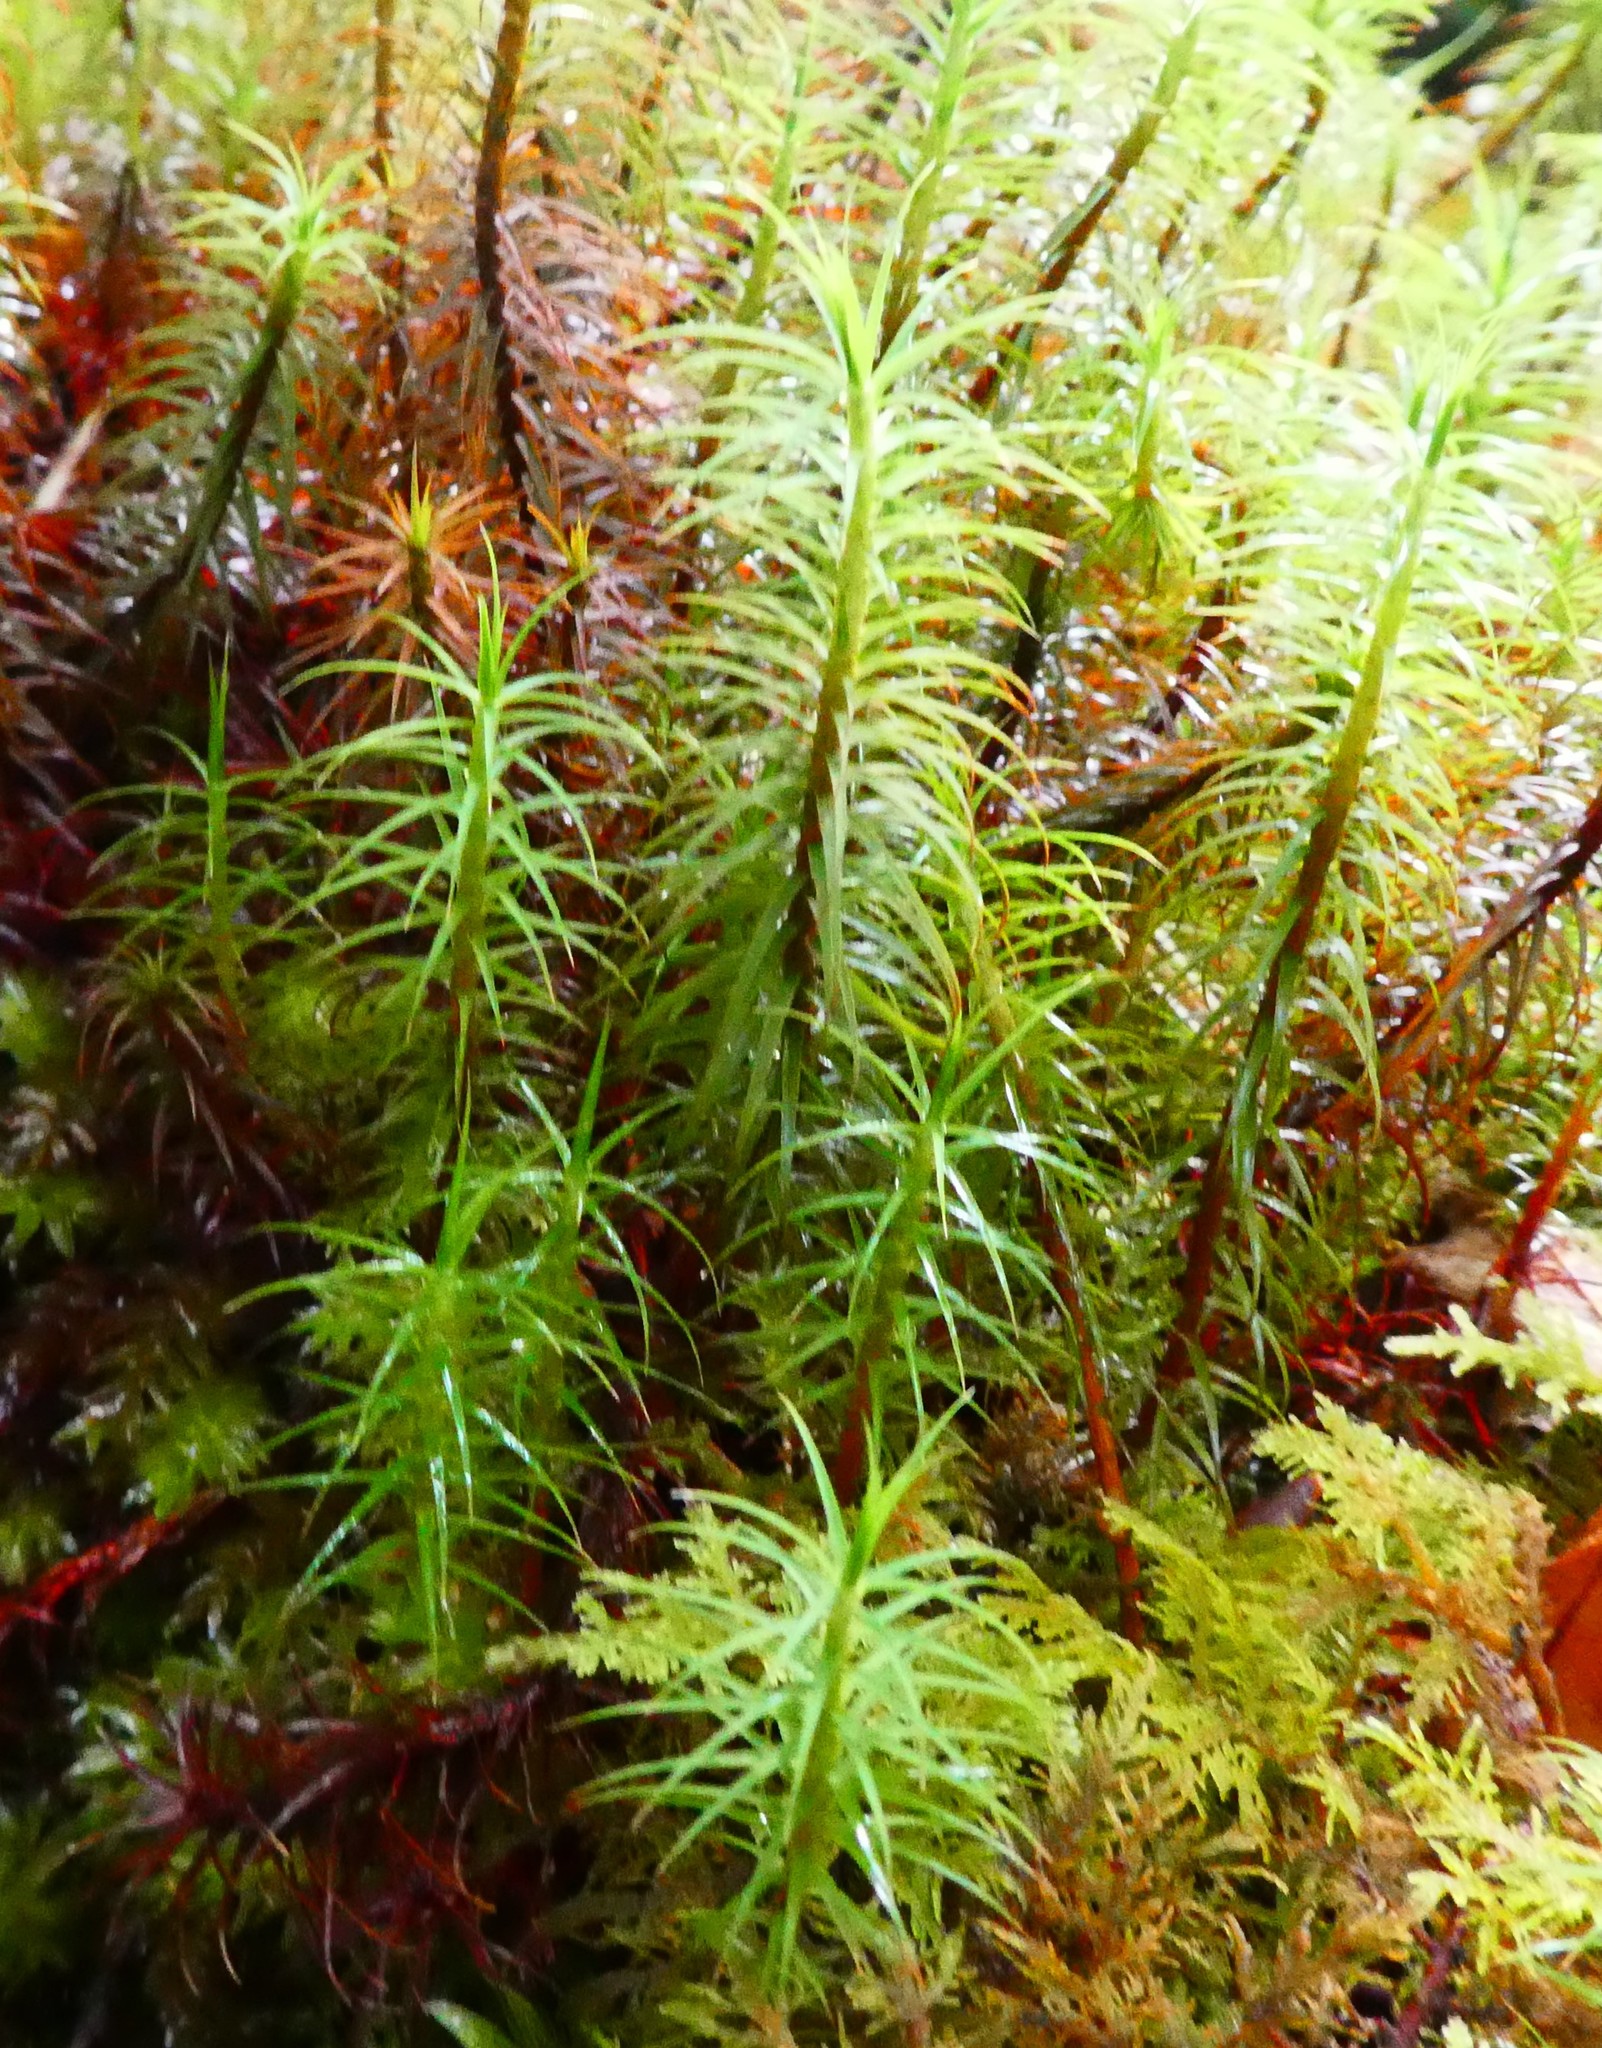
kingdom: Plantae
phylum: Bryophyta
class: Polytrichopsida
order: Polytrichales
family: Polytrichaceae
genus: Polytrichum
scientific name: Polytrichum commune
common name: Common haircap
